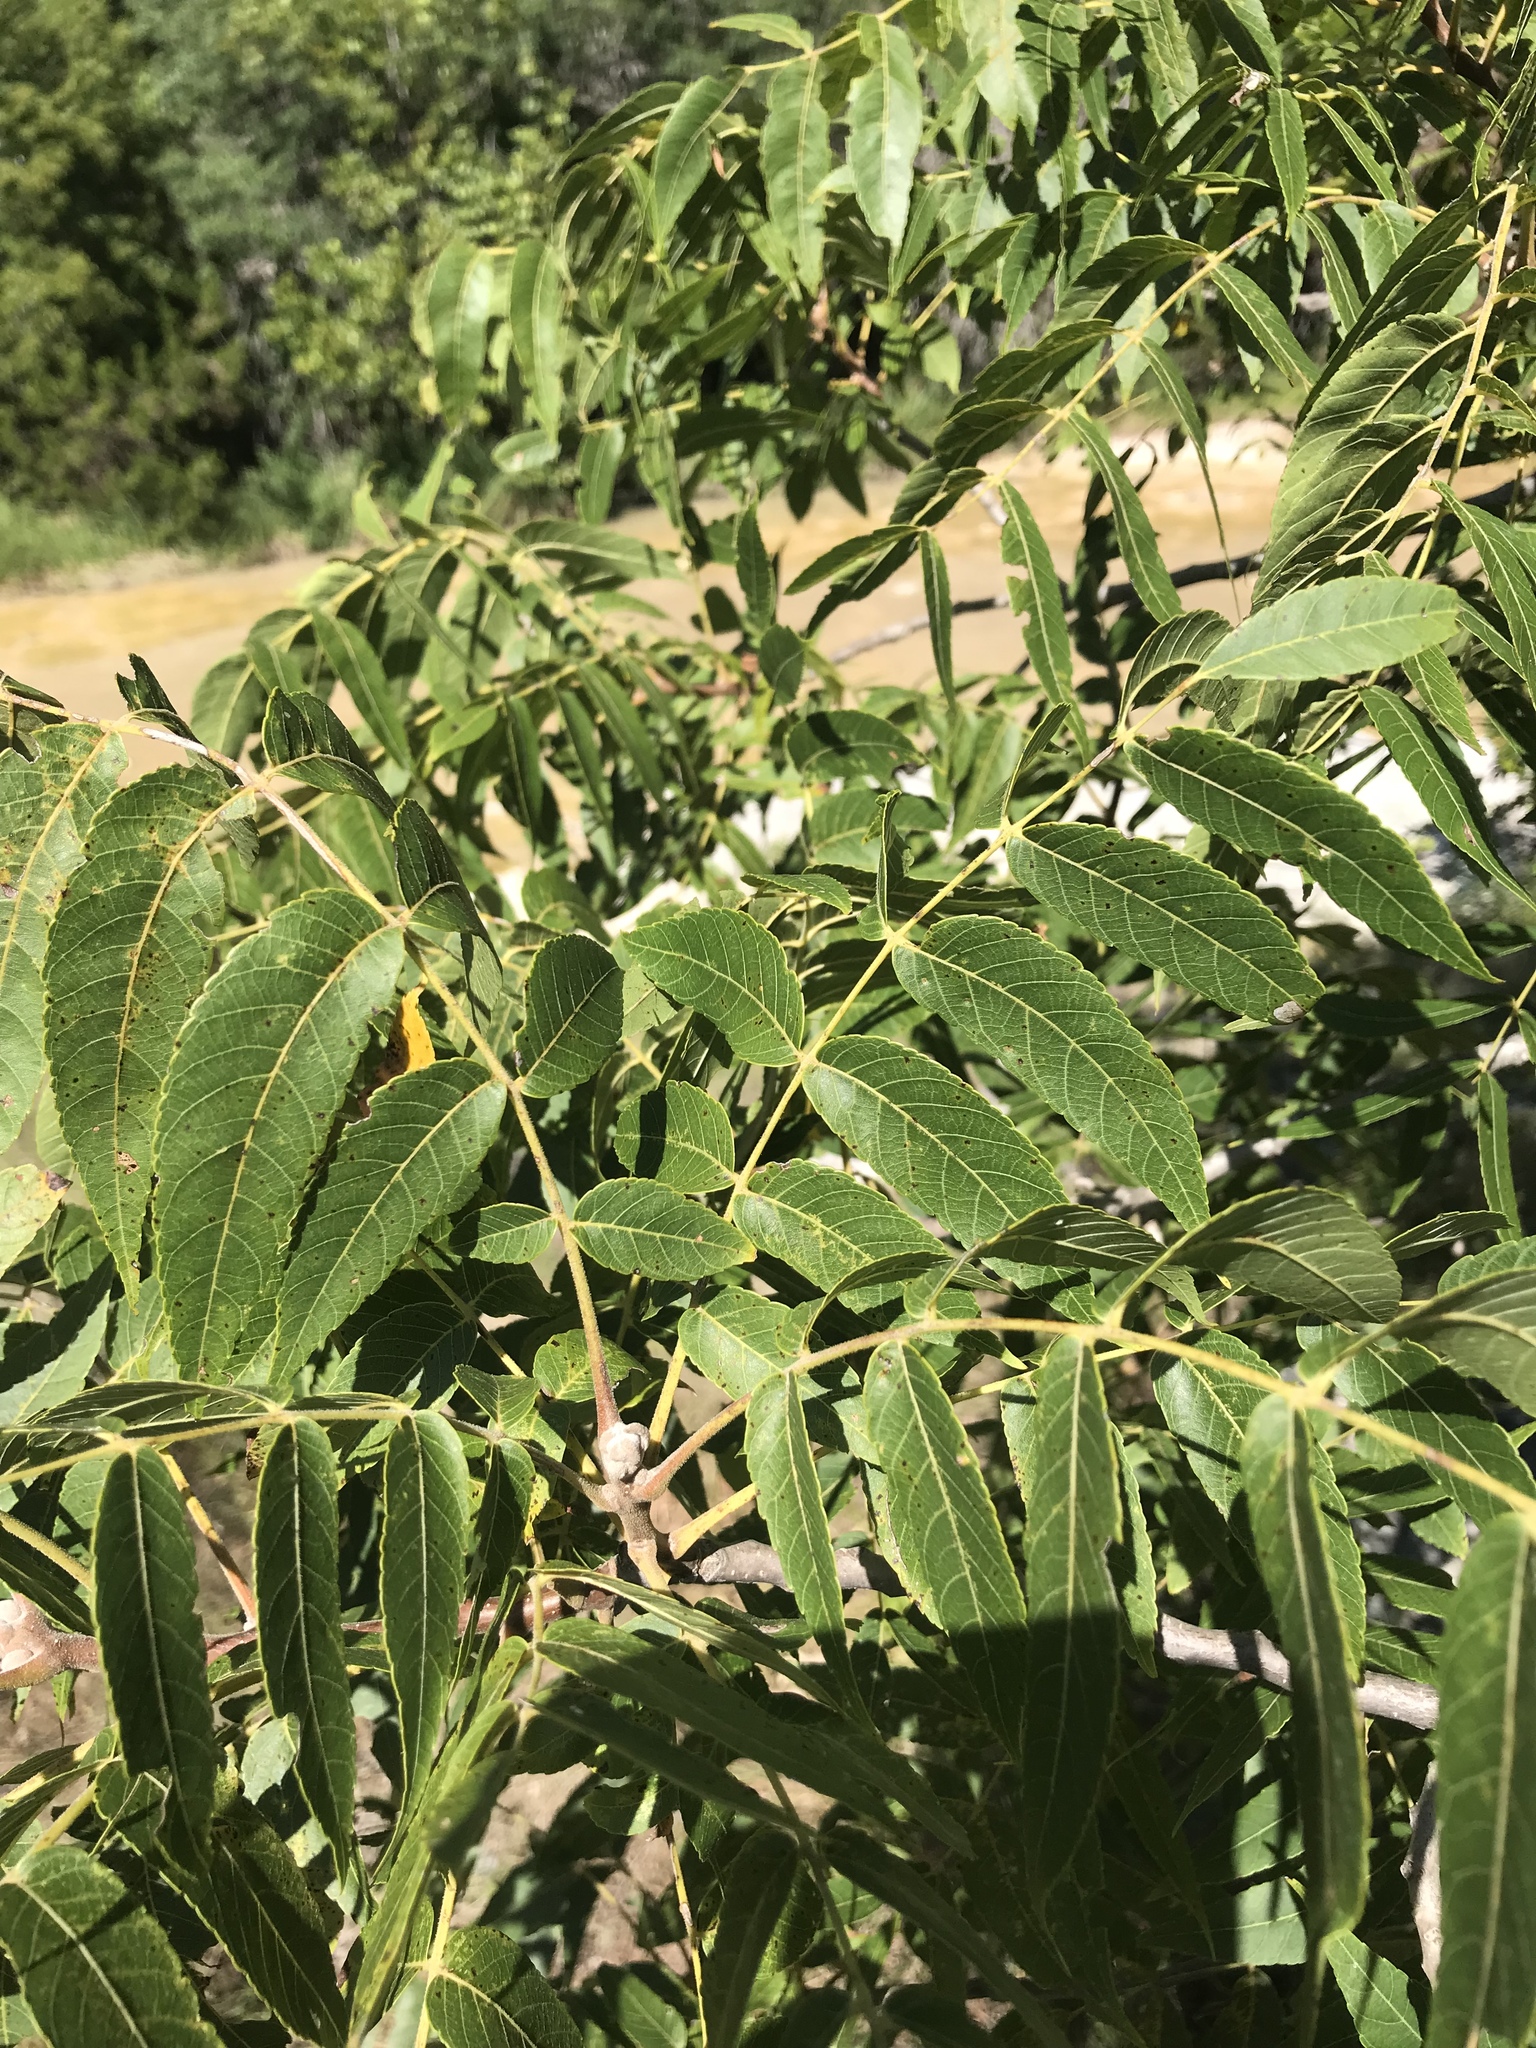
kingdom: Plantae
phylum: Tracheophyta
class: Magnoliopsida
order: Fagales
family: Juglandaceae
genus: Juglans
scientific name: Juglans microcarpa
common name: Texas walnut
